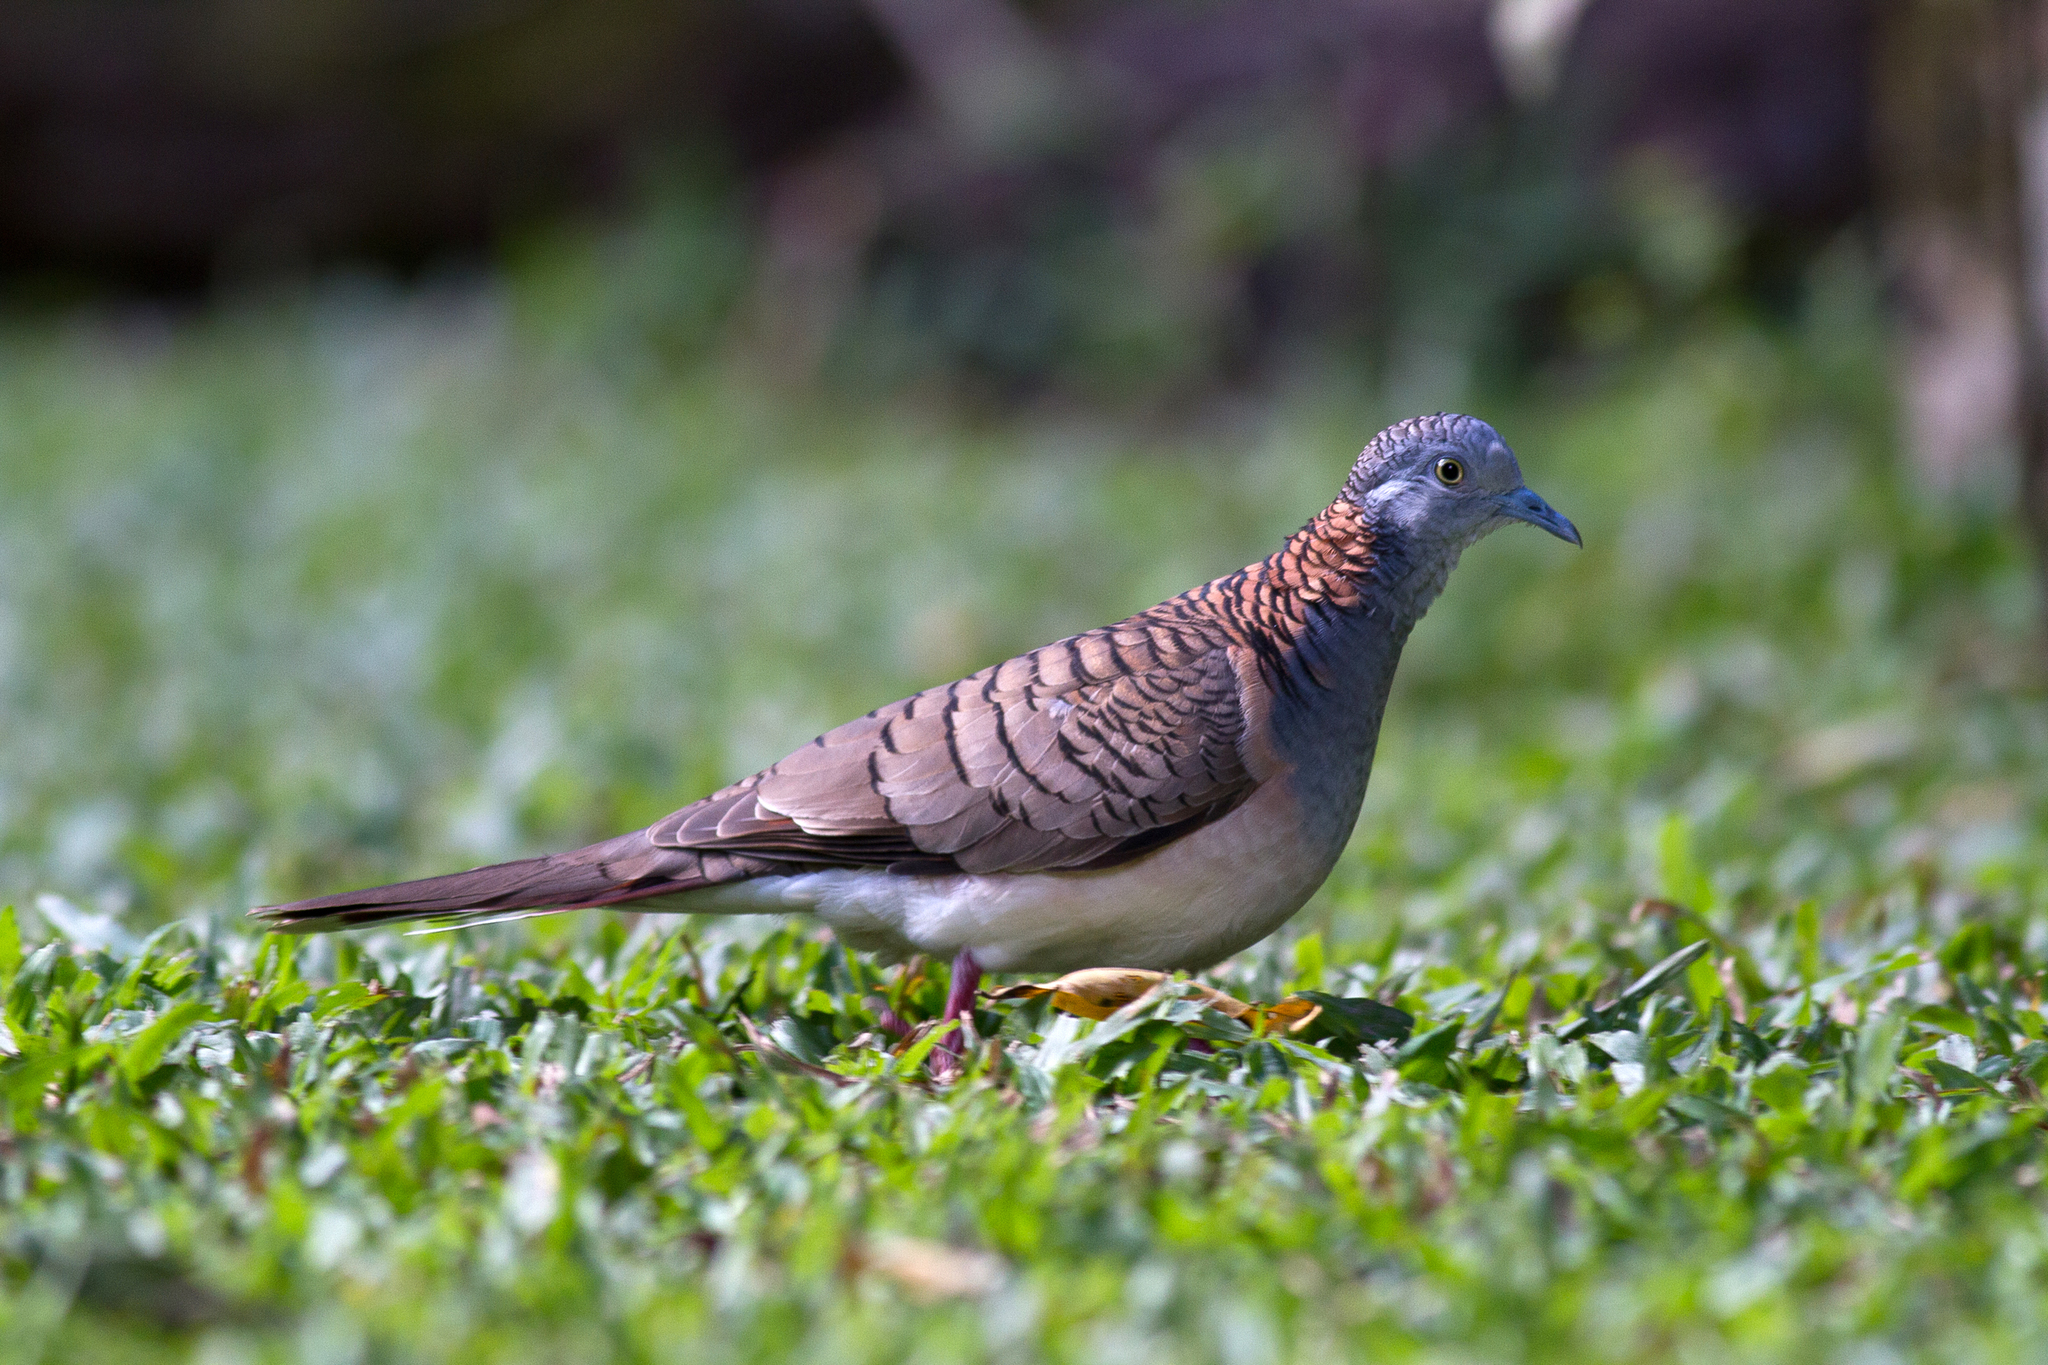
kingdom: Animalia
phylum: Chordata
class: Aves
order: Columbiformes
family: Columbidae
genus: Geopelia
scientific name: Geopelia humeralis
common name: Bar-shouldered dove
